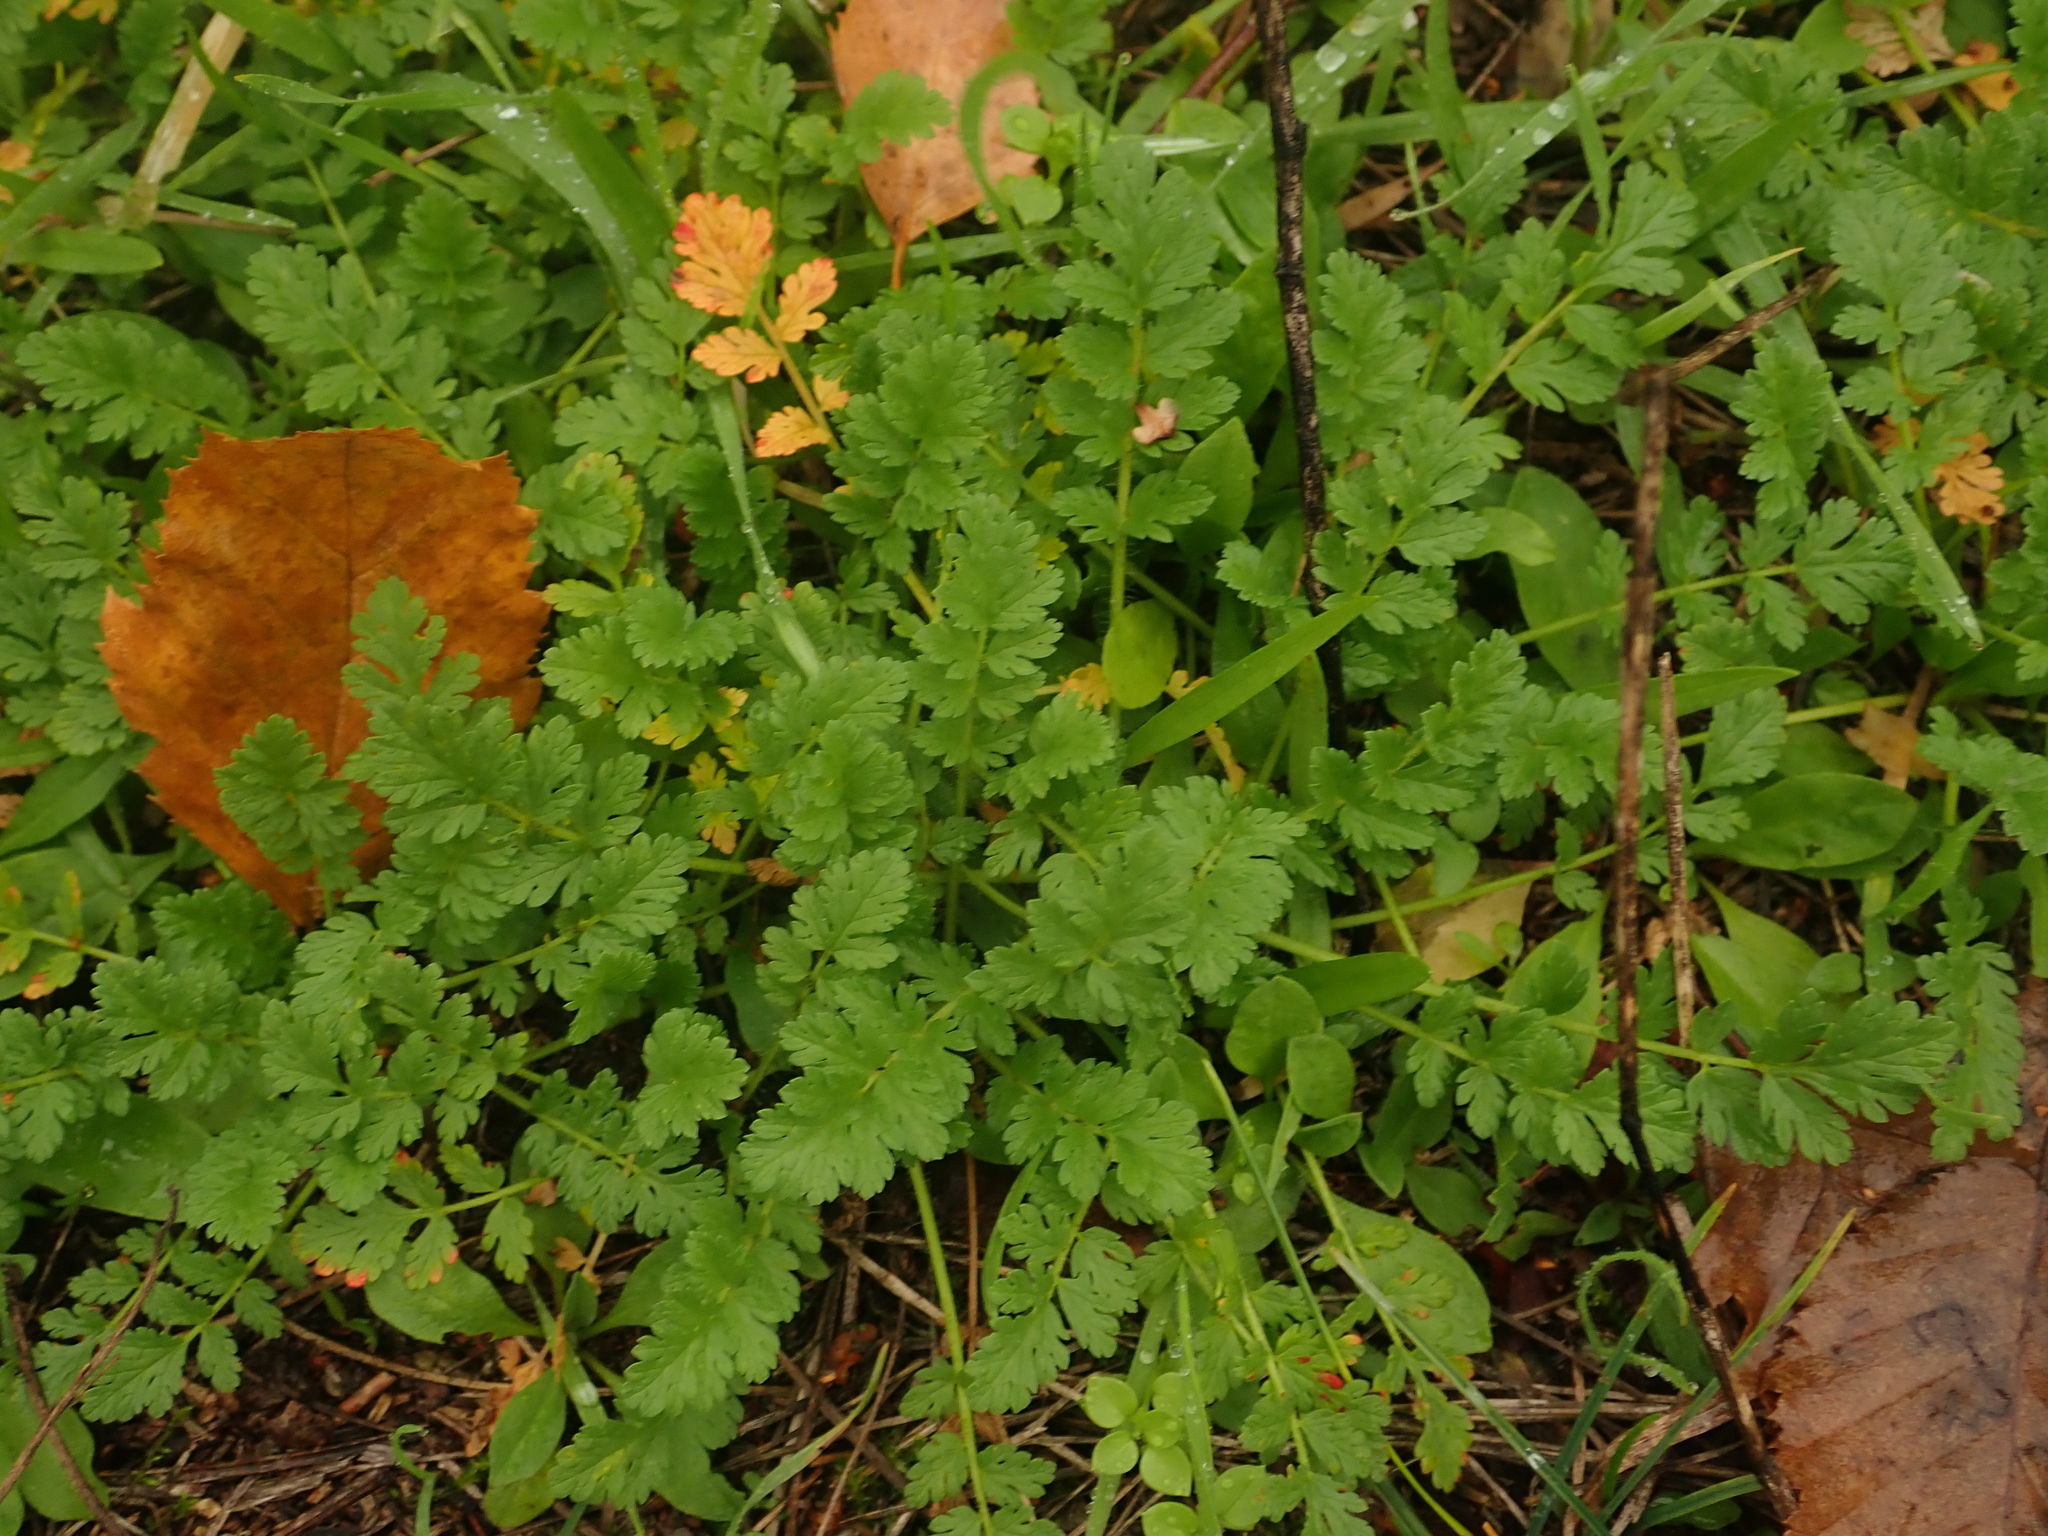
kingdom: Plantae
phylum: Tracheophyta
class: Magnoliopsida
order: Geraniales
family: Geraniaceae
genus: Erodium
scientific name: Erodium cicutarium
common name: Common stork's-bill
